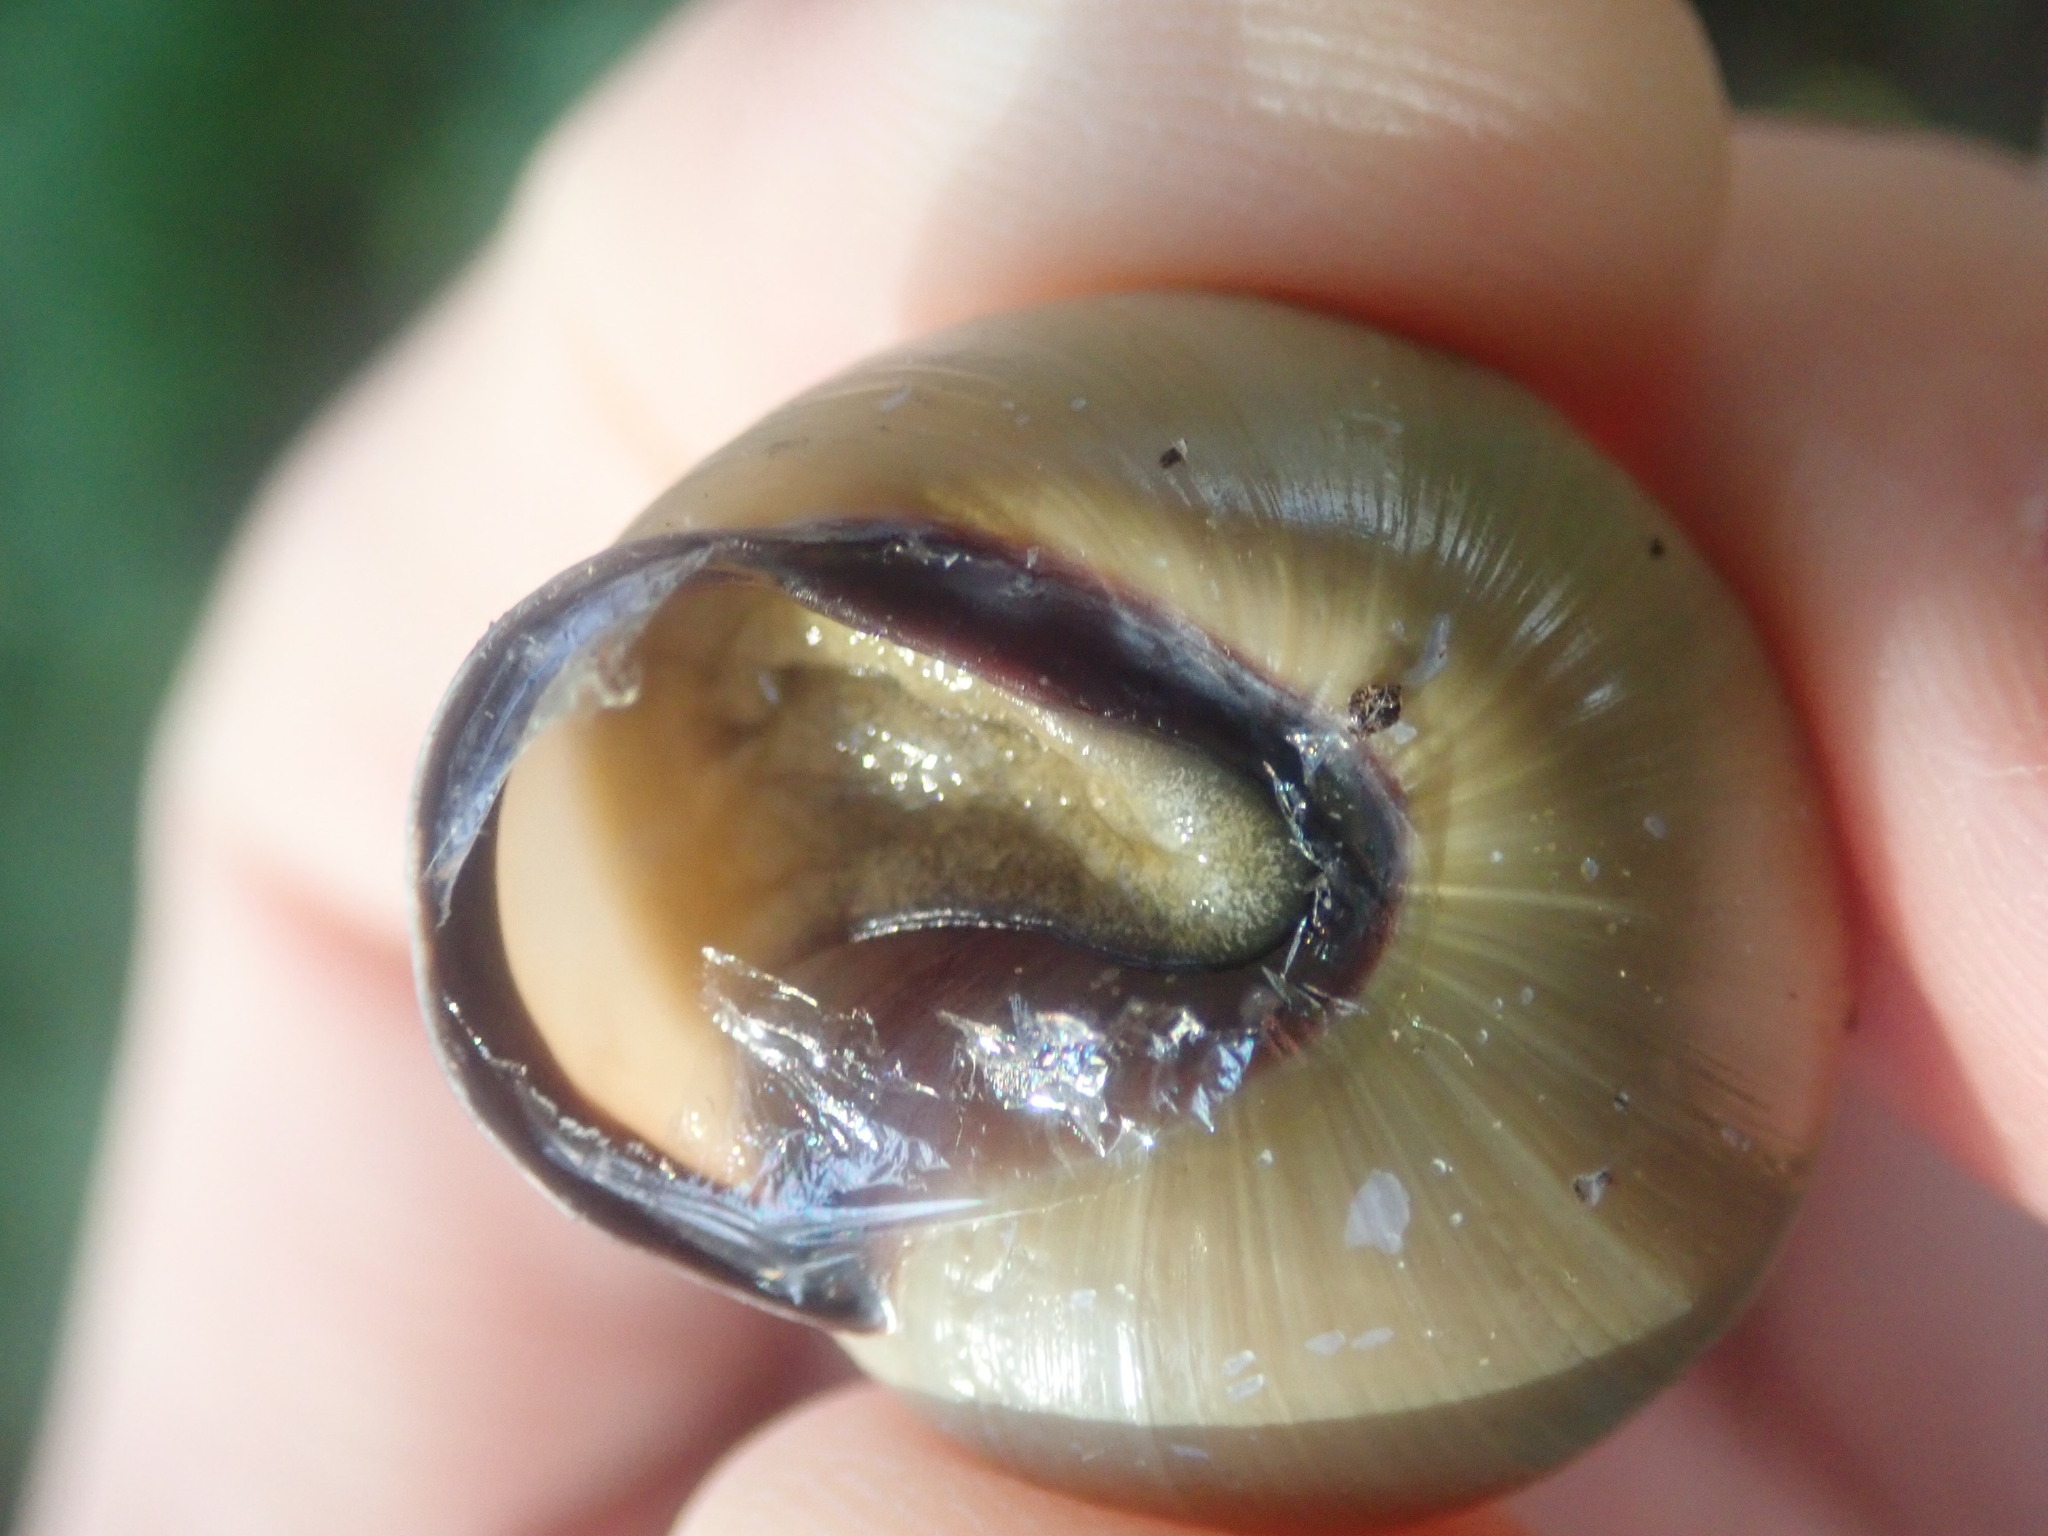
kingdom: Animalia
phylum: Mollusca
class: Gastropoda
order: Stylommatophora
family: Helicidae
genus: Cepaea
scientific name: Cepaea nemoralis
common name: Grovesnail
